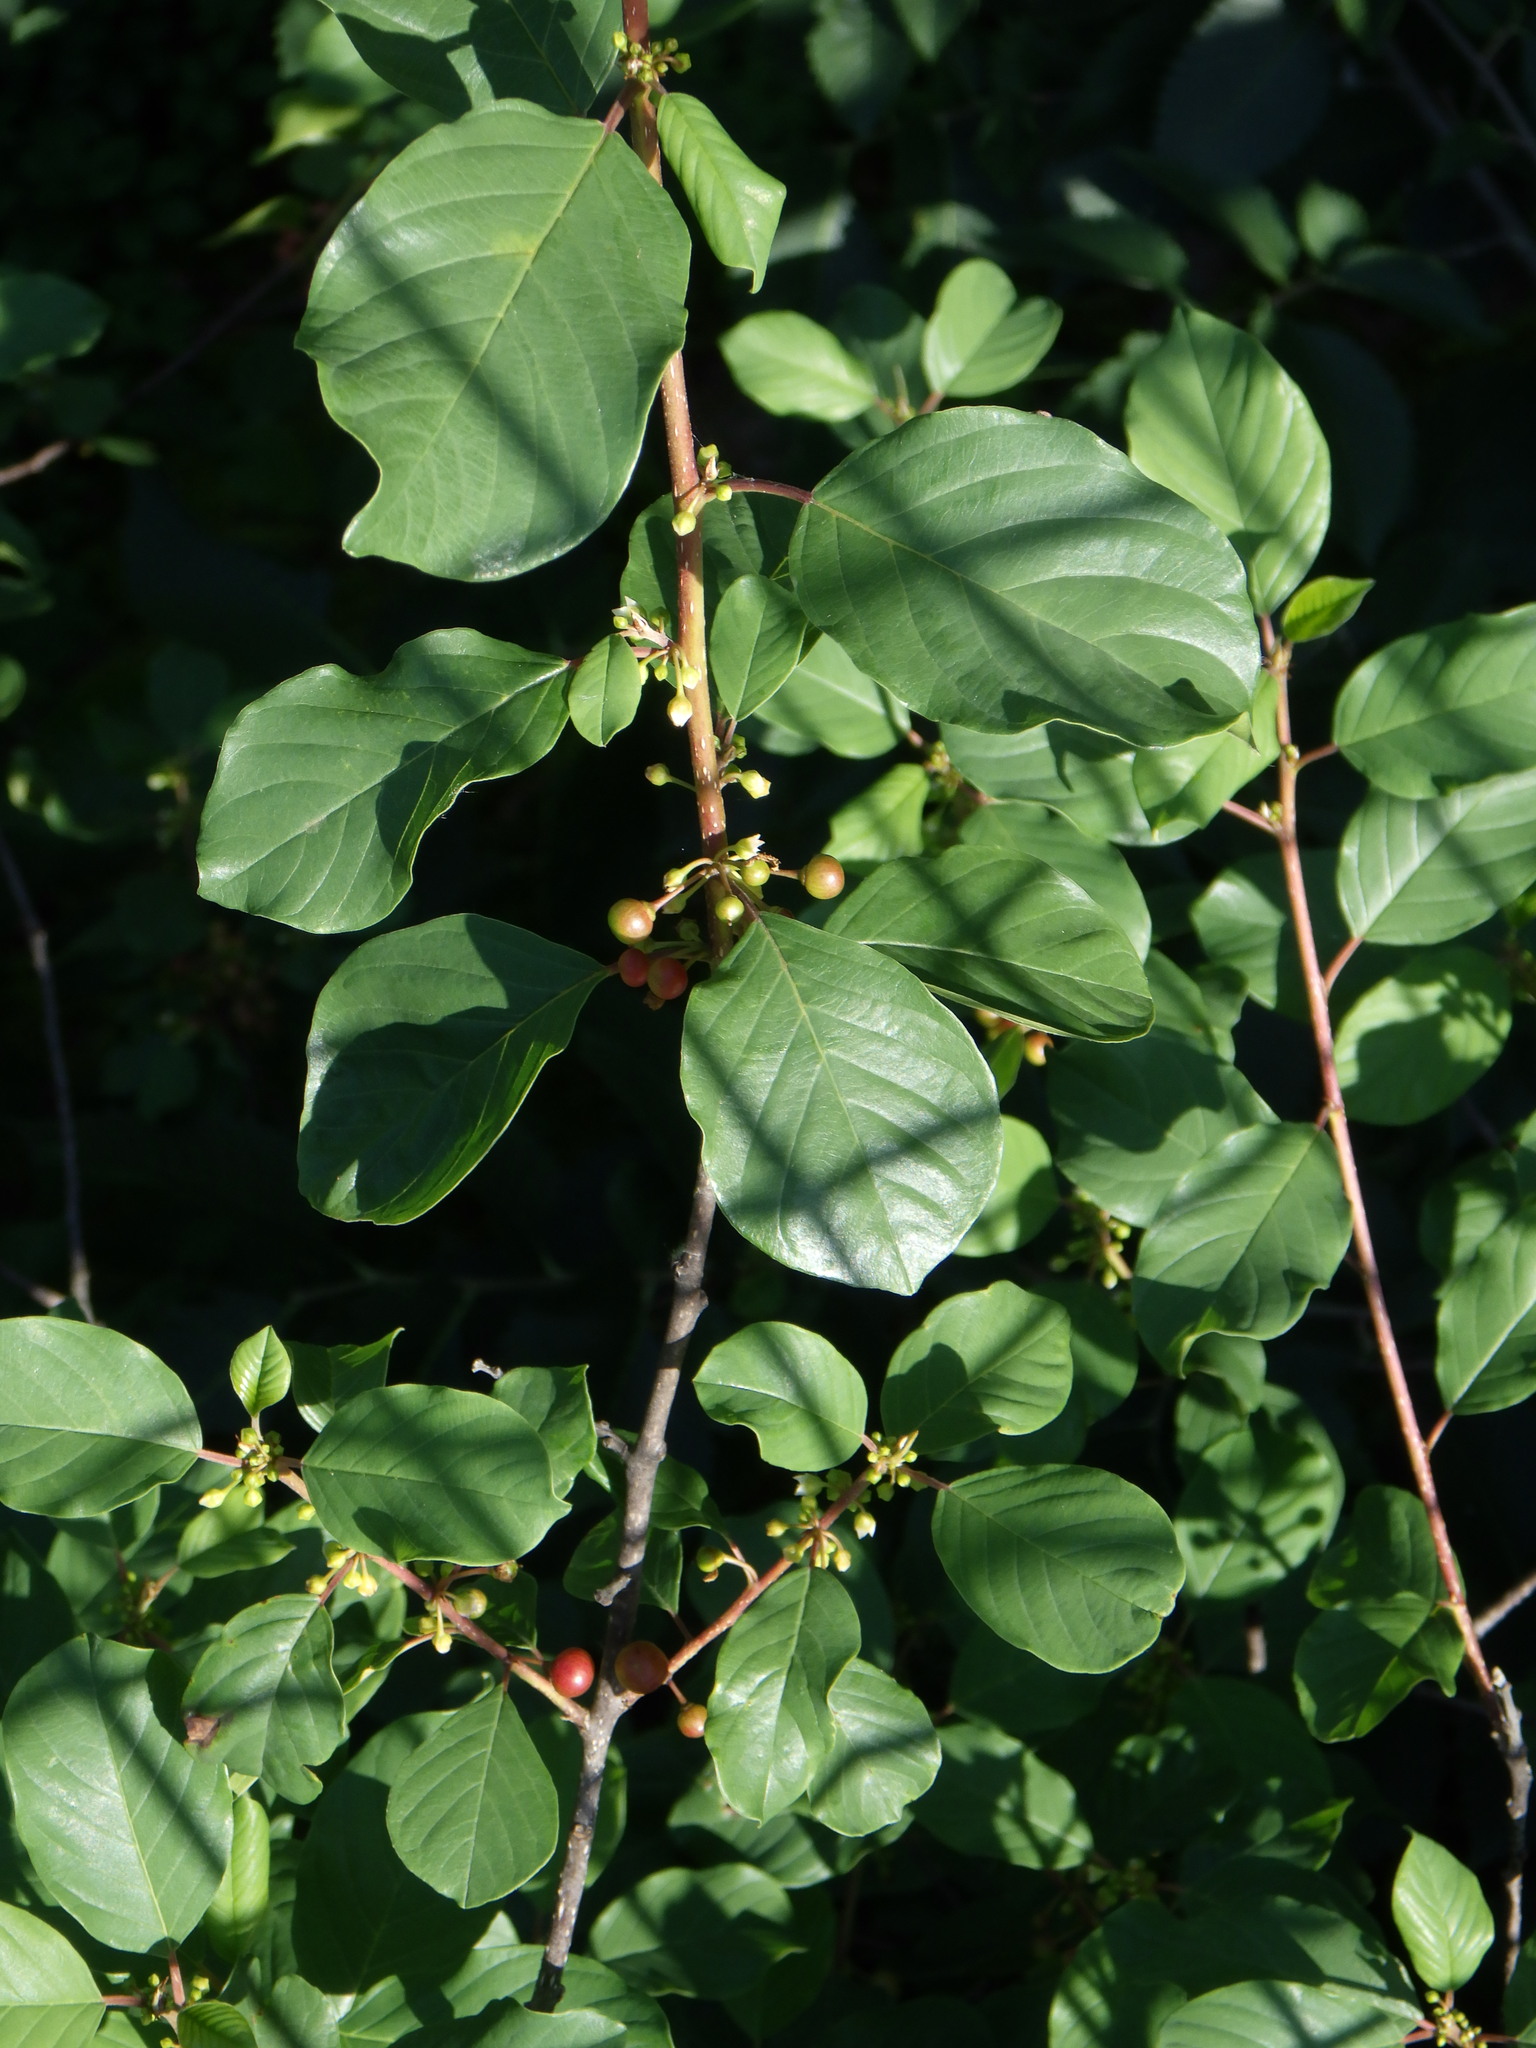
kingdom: Plantae
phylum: Tracheophyta
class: Magnoliopsida
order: Rosales
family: Rhamnaceae
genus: Frangula
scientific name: Frangula alnus
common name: Alder buckthorn
